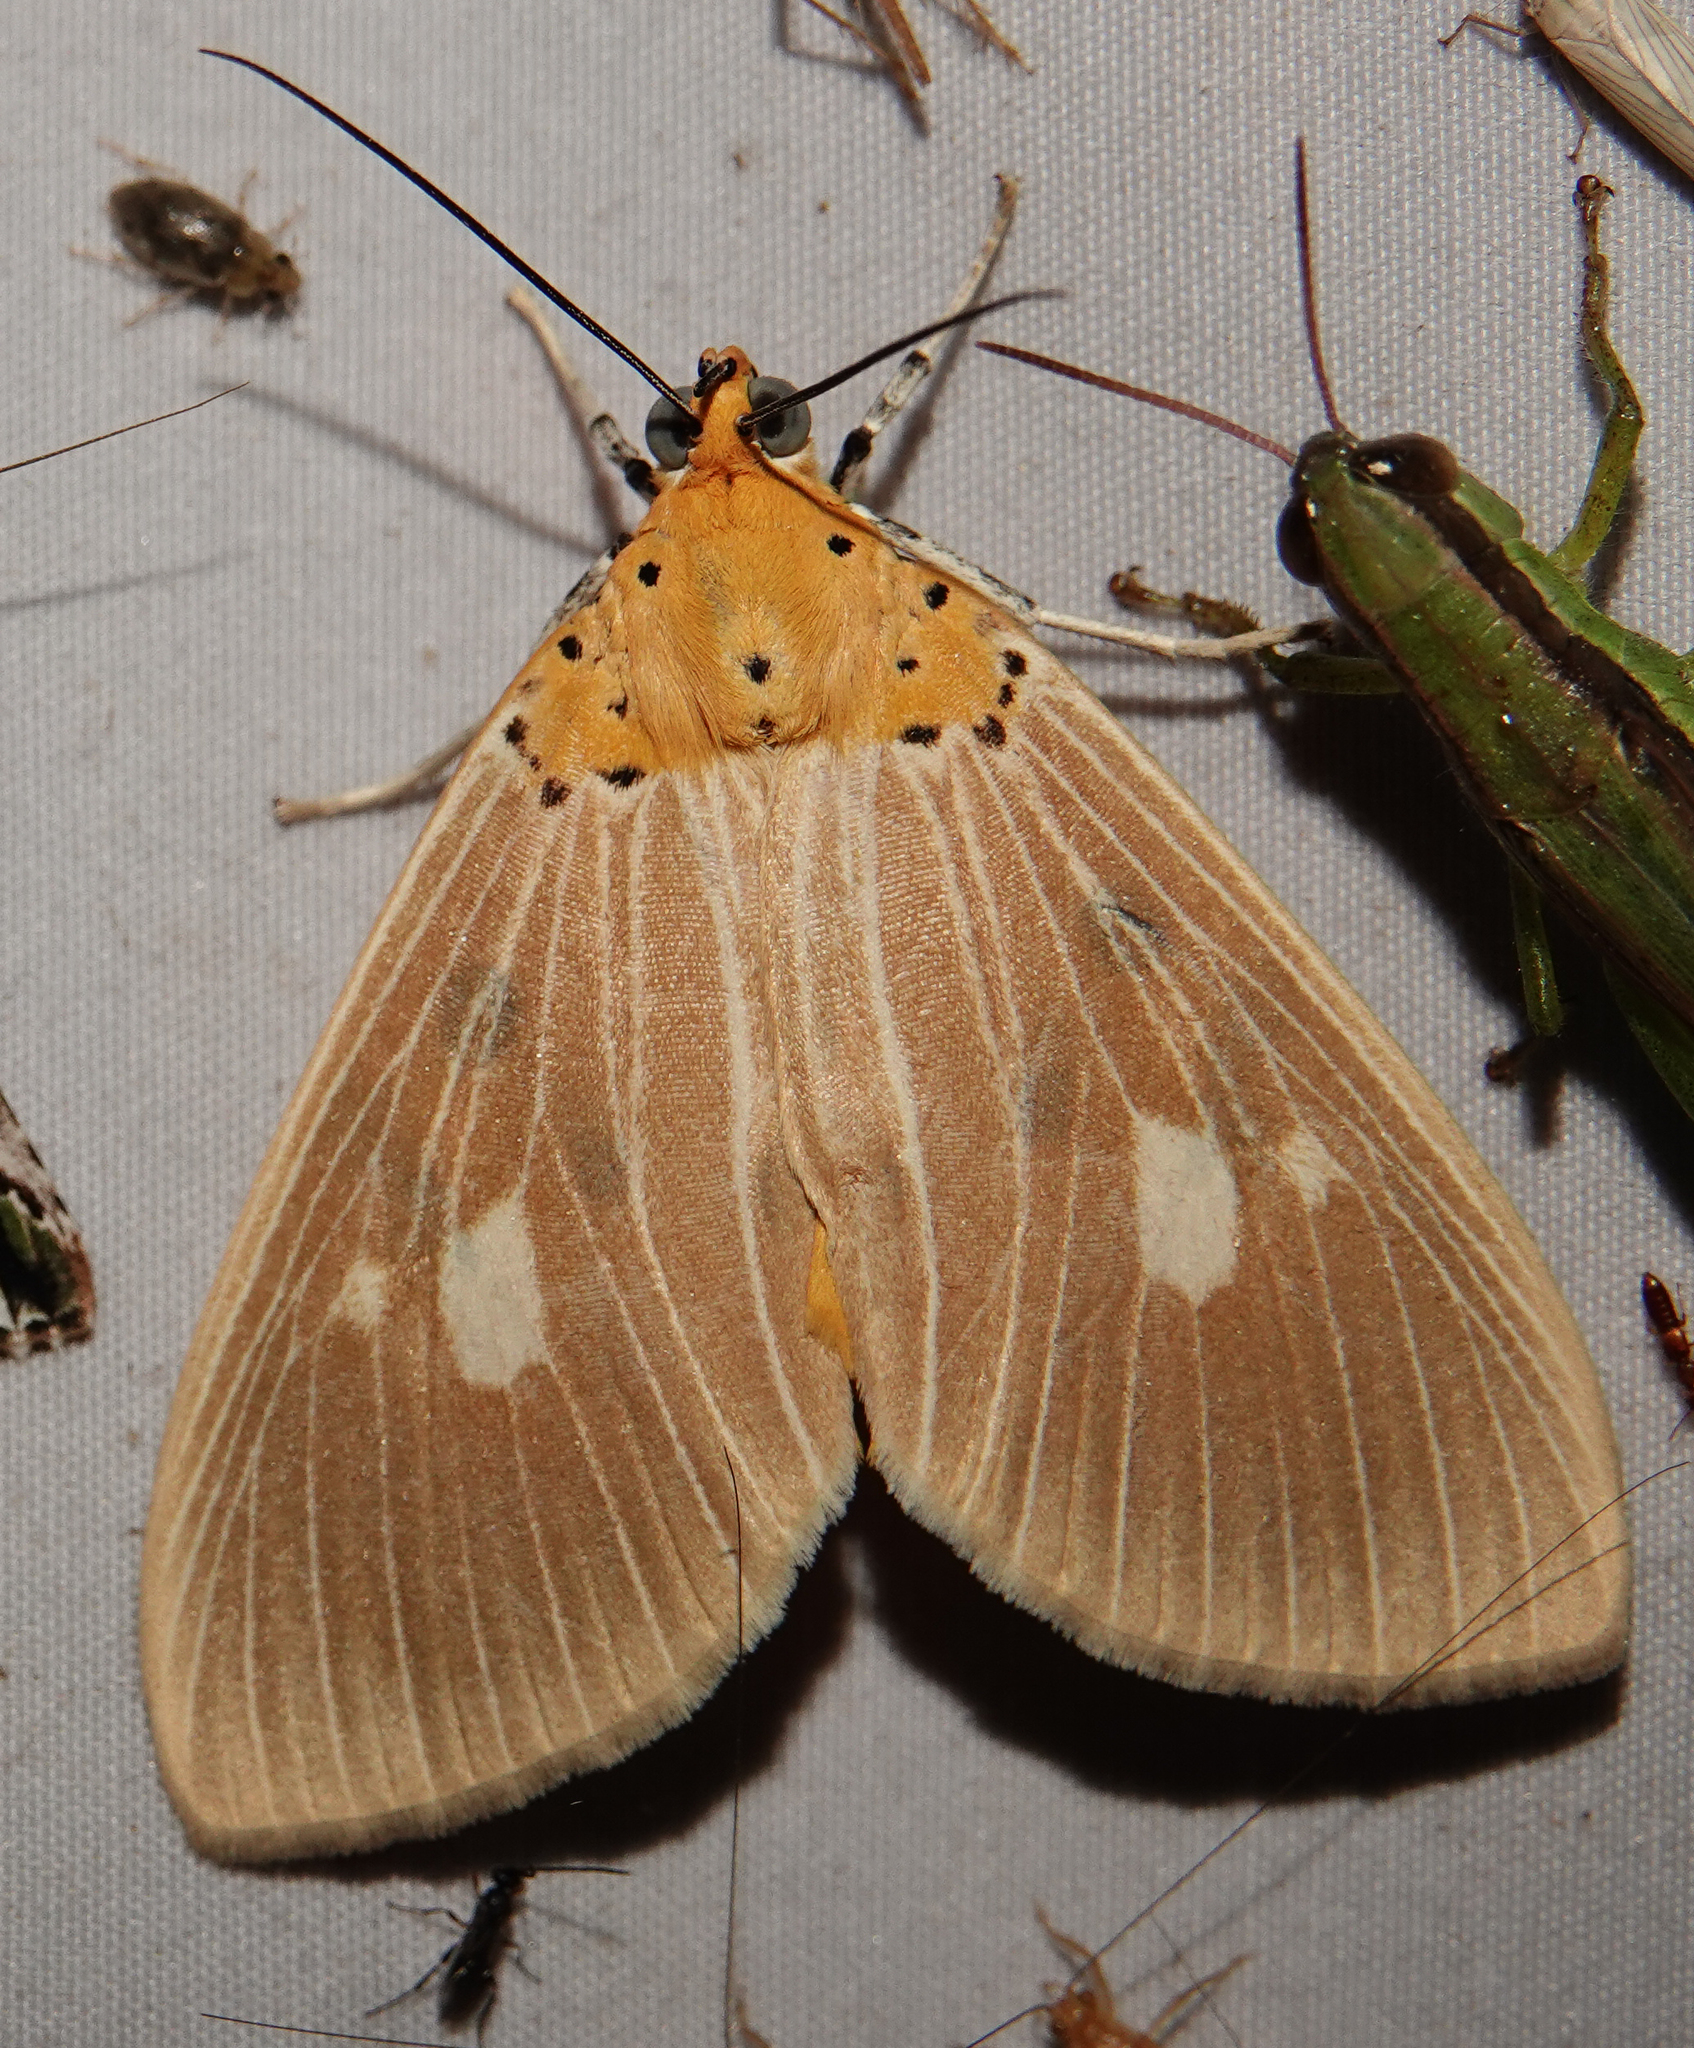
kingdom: Animalia
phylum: Arthropoda
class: Insecta
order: Lepidoptera
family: Erebidae
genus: Asota
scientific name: Asota plaginota
